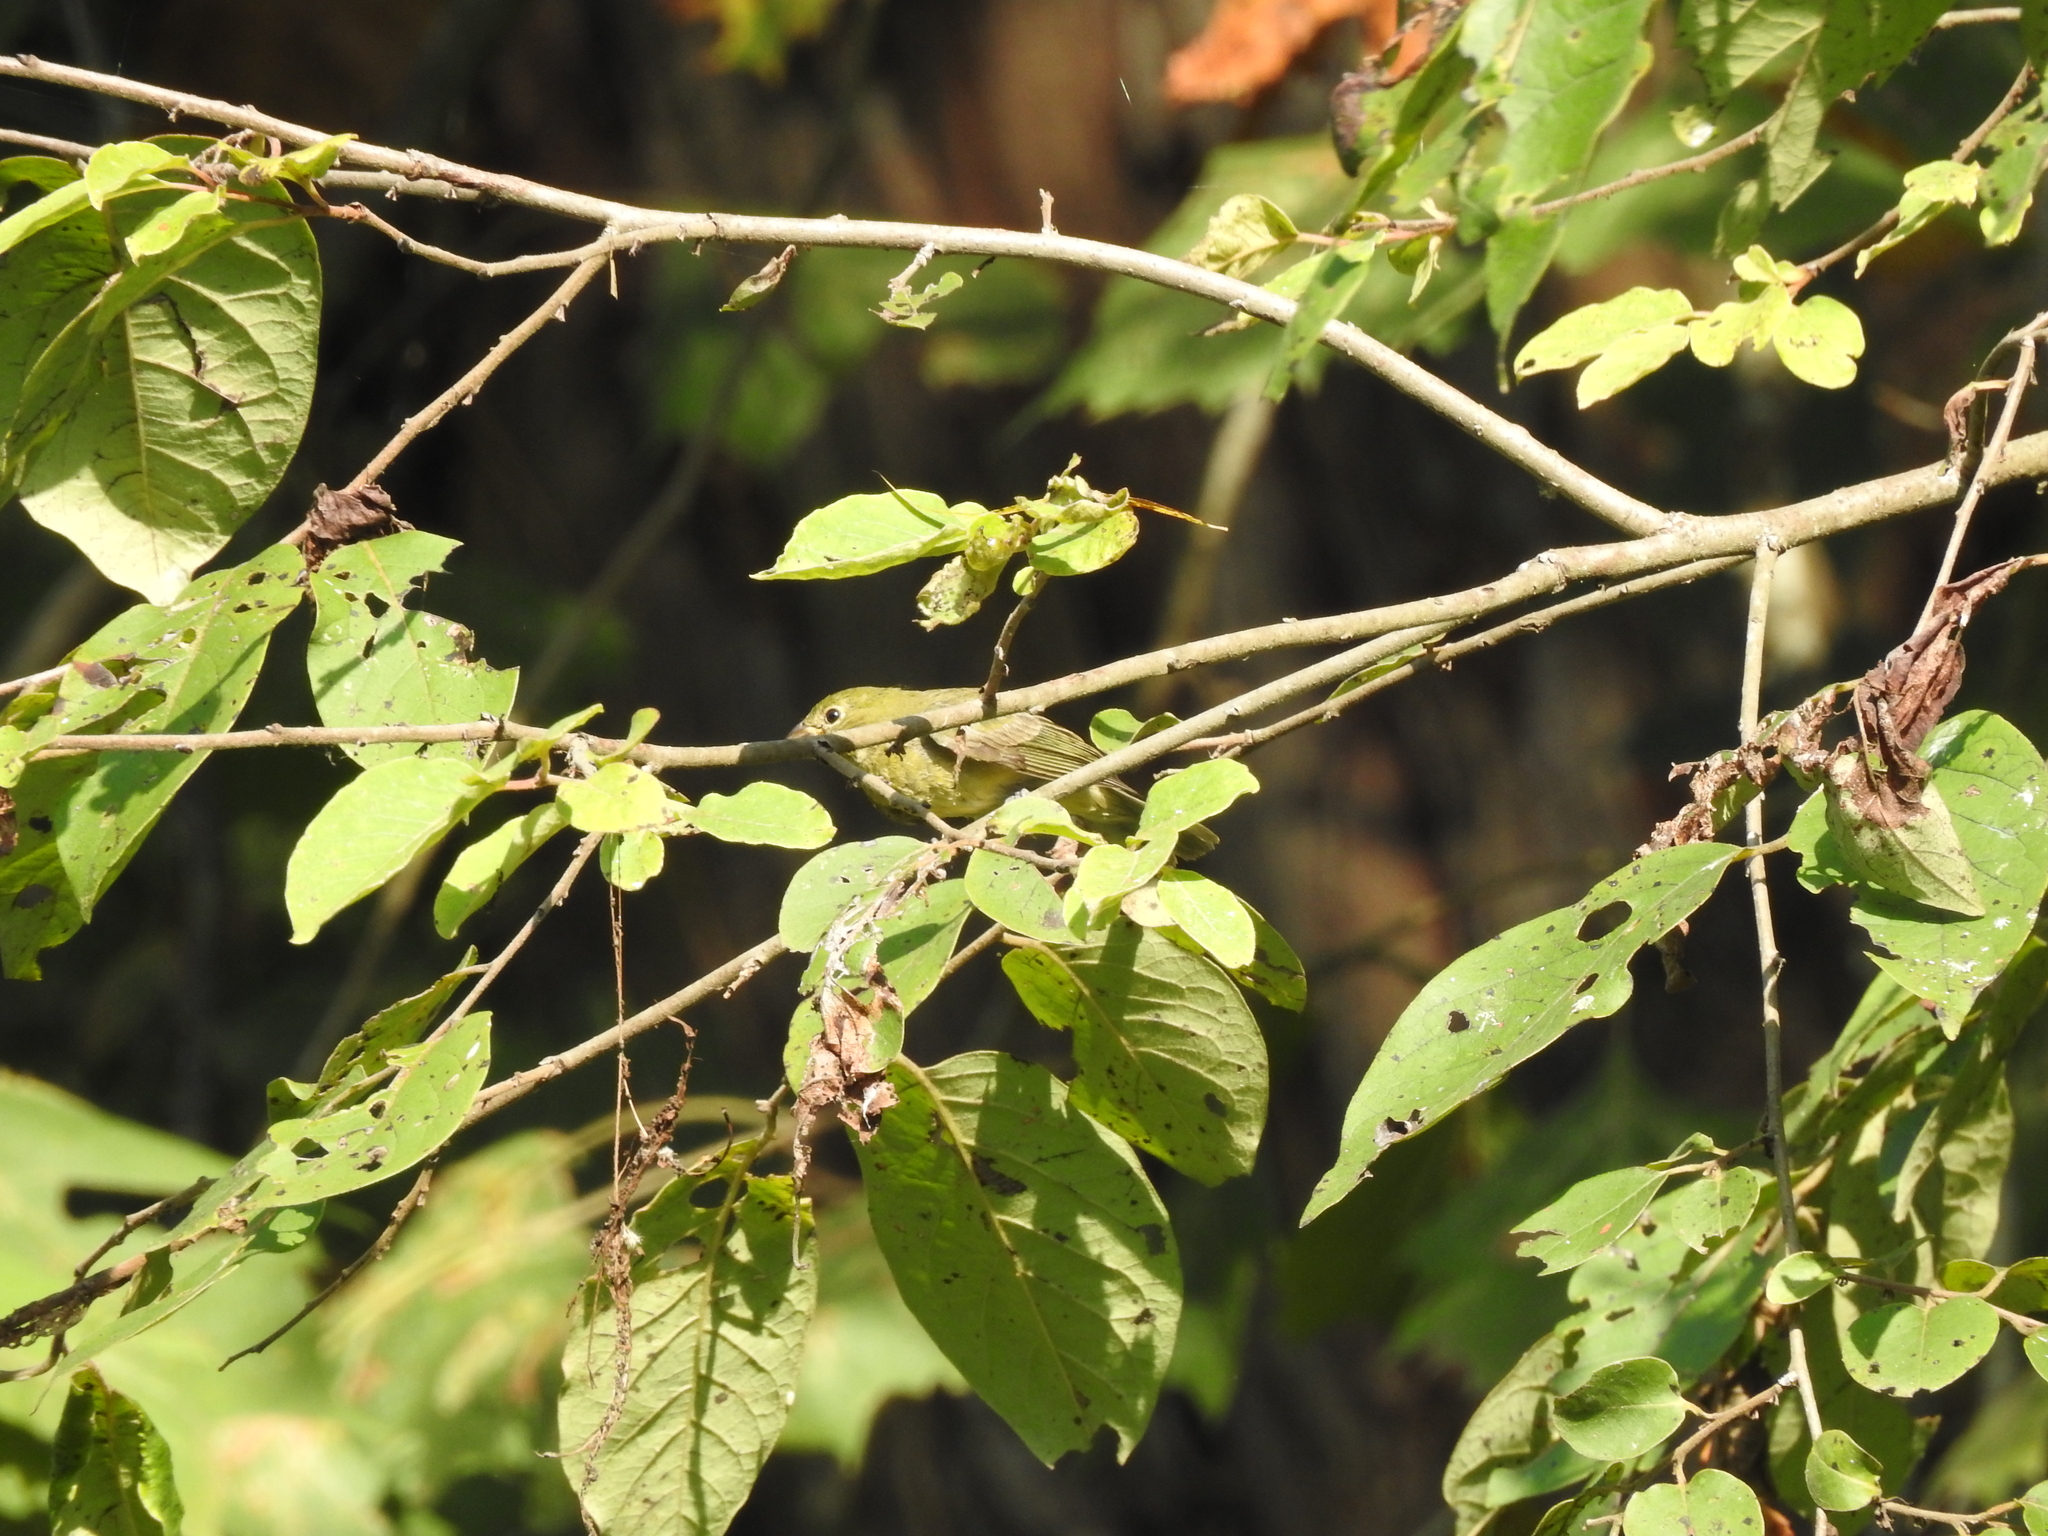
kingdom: Animalia
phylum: Chordata
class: Aves
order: Passeriformes
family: Cardinalidae
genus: Passerina
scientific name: Passerina ciris
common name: Painted bunting
